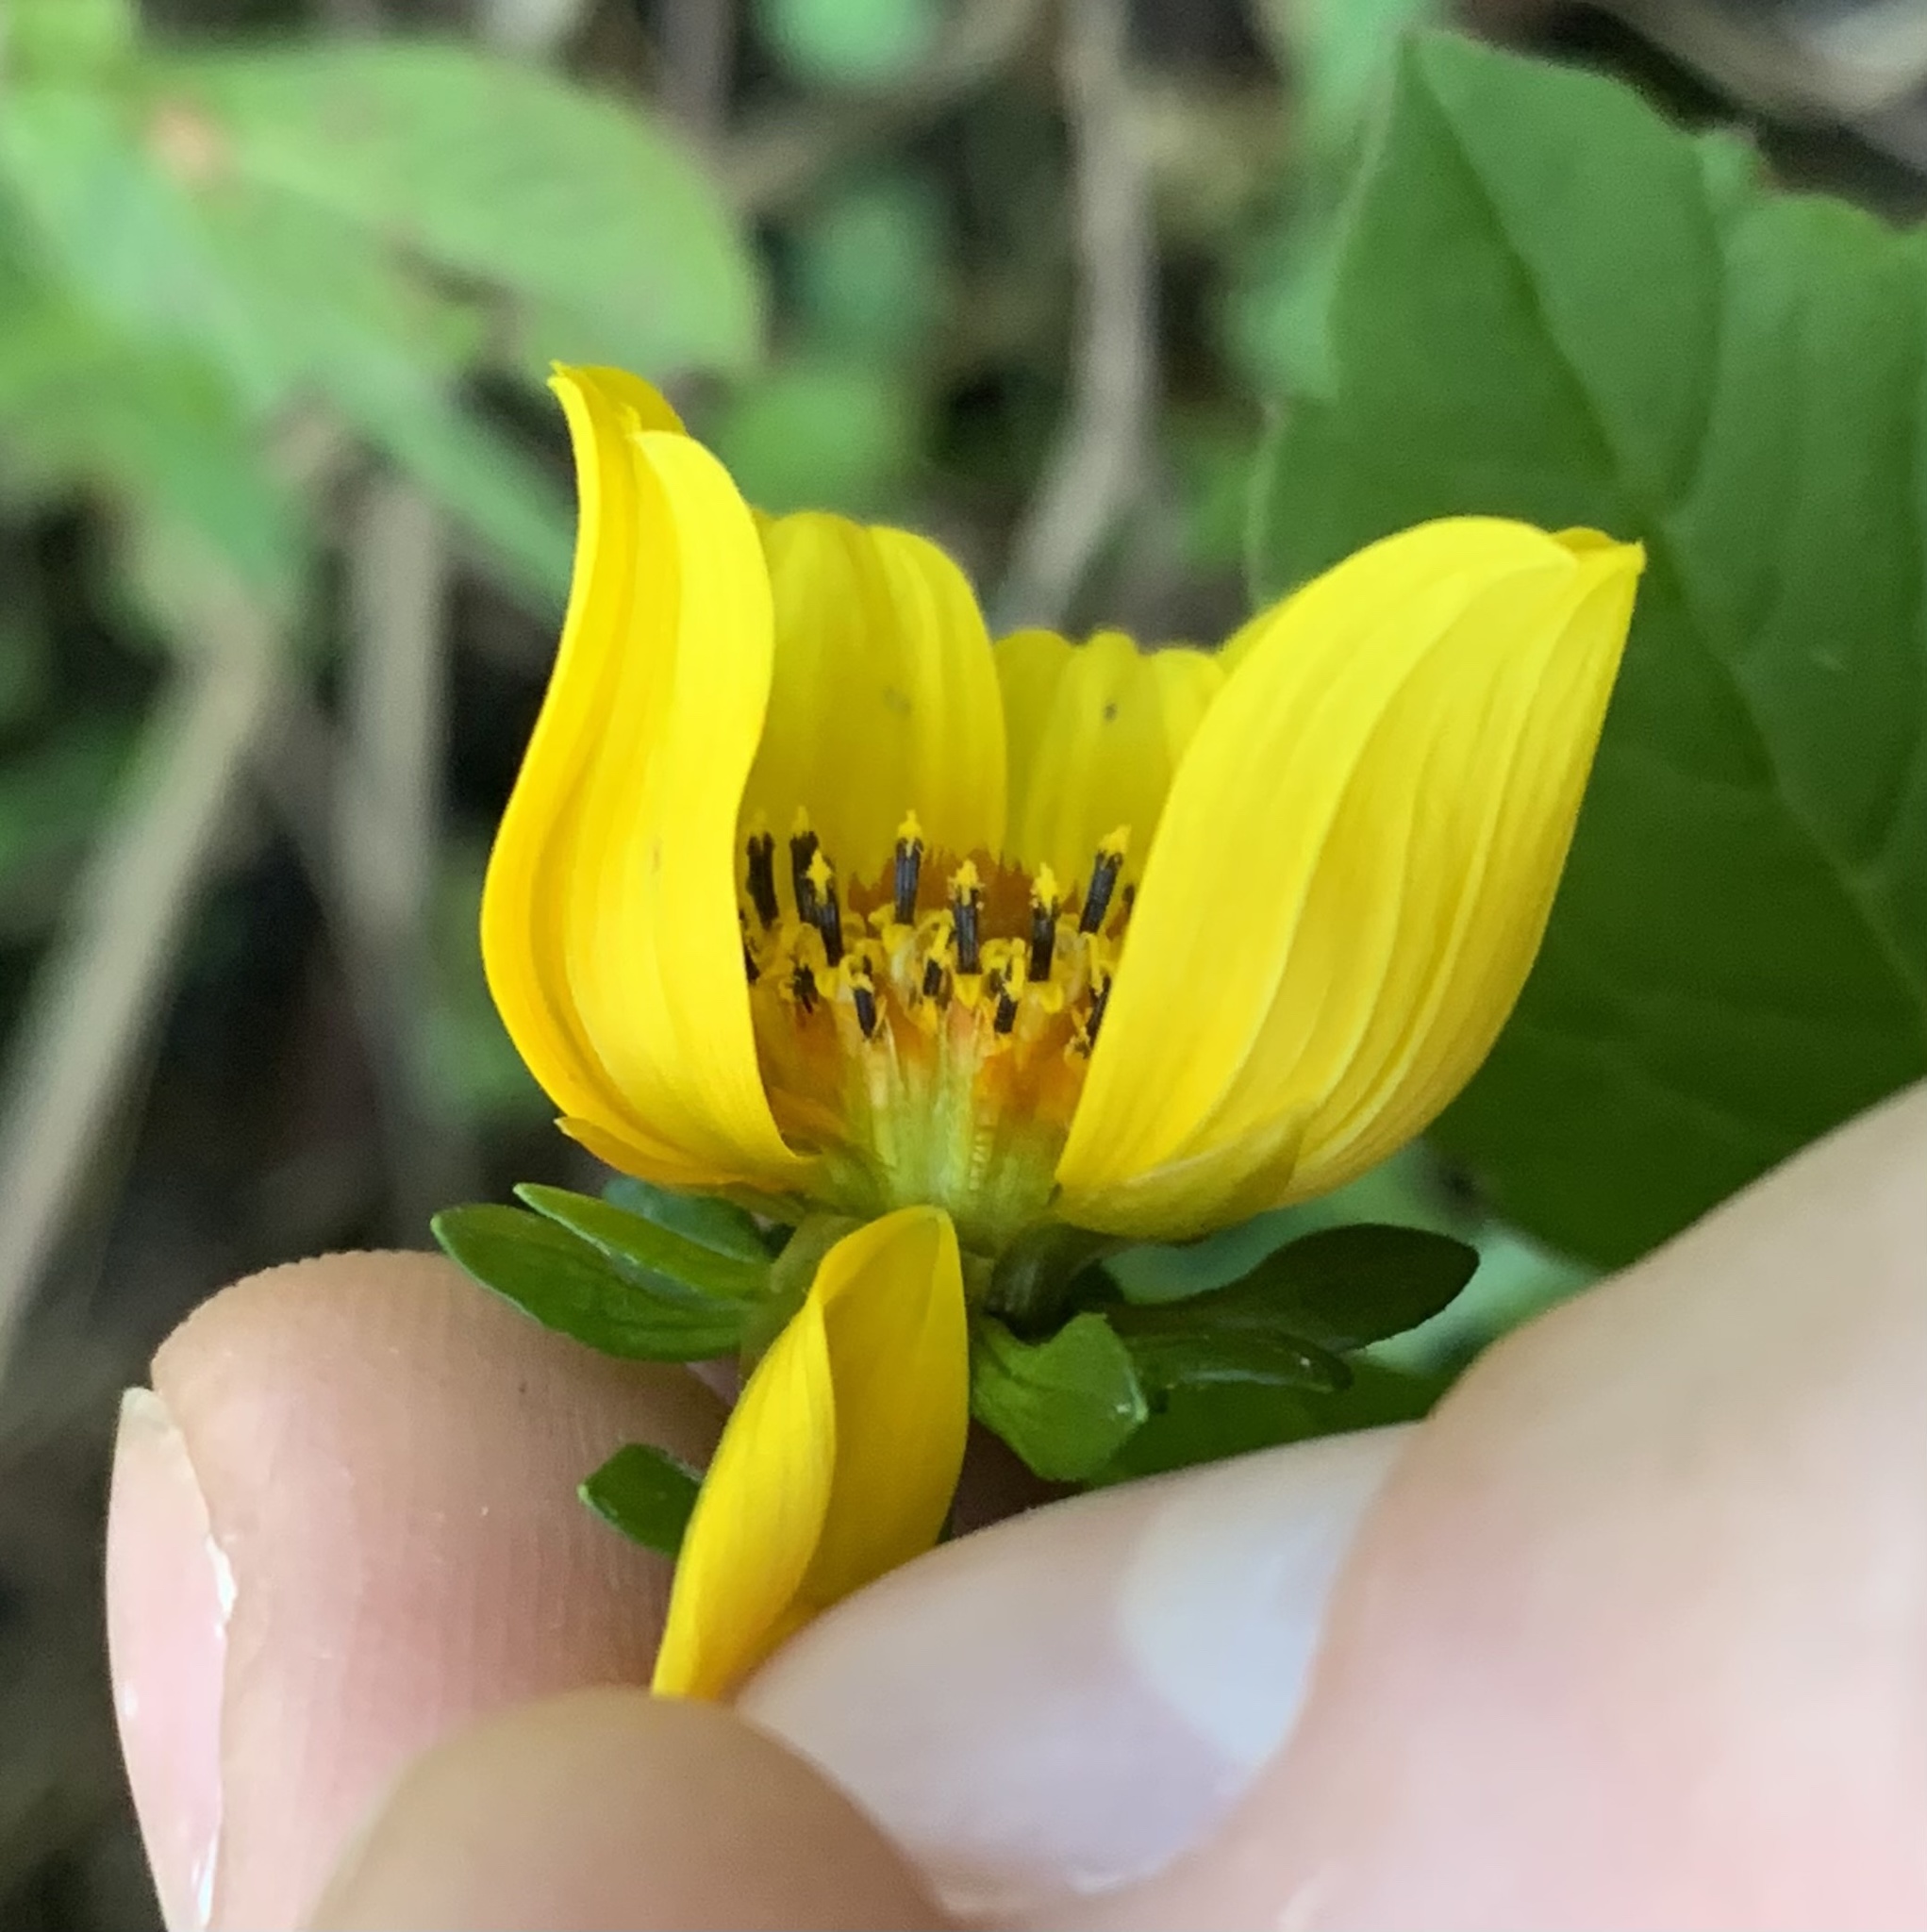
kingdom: Plantae
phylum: Tracheophyta
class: Magnoliopsida
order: Asterales
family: Asteraceae
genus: Bidens
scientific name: Bidens laevis
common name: Larger bur-marigold
